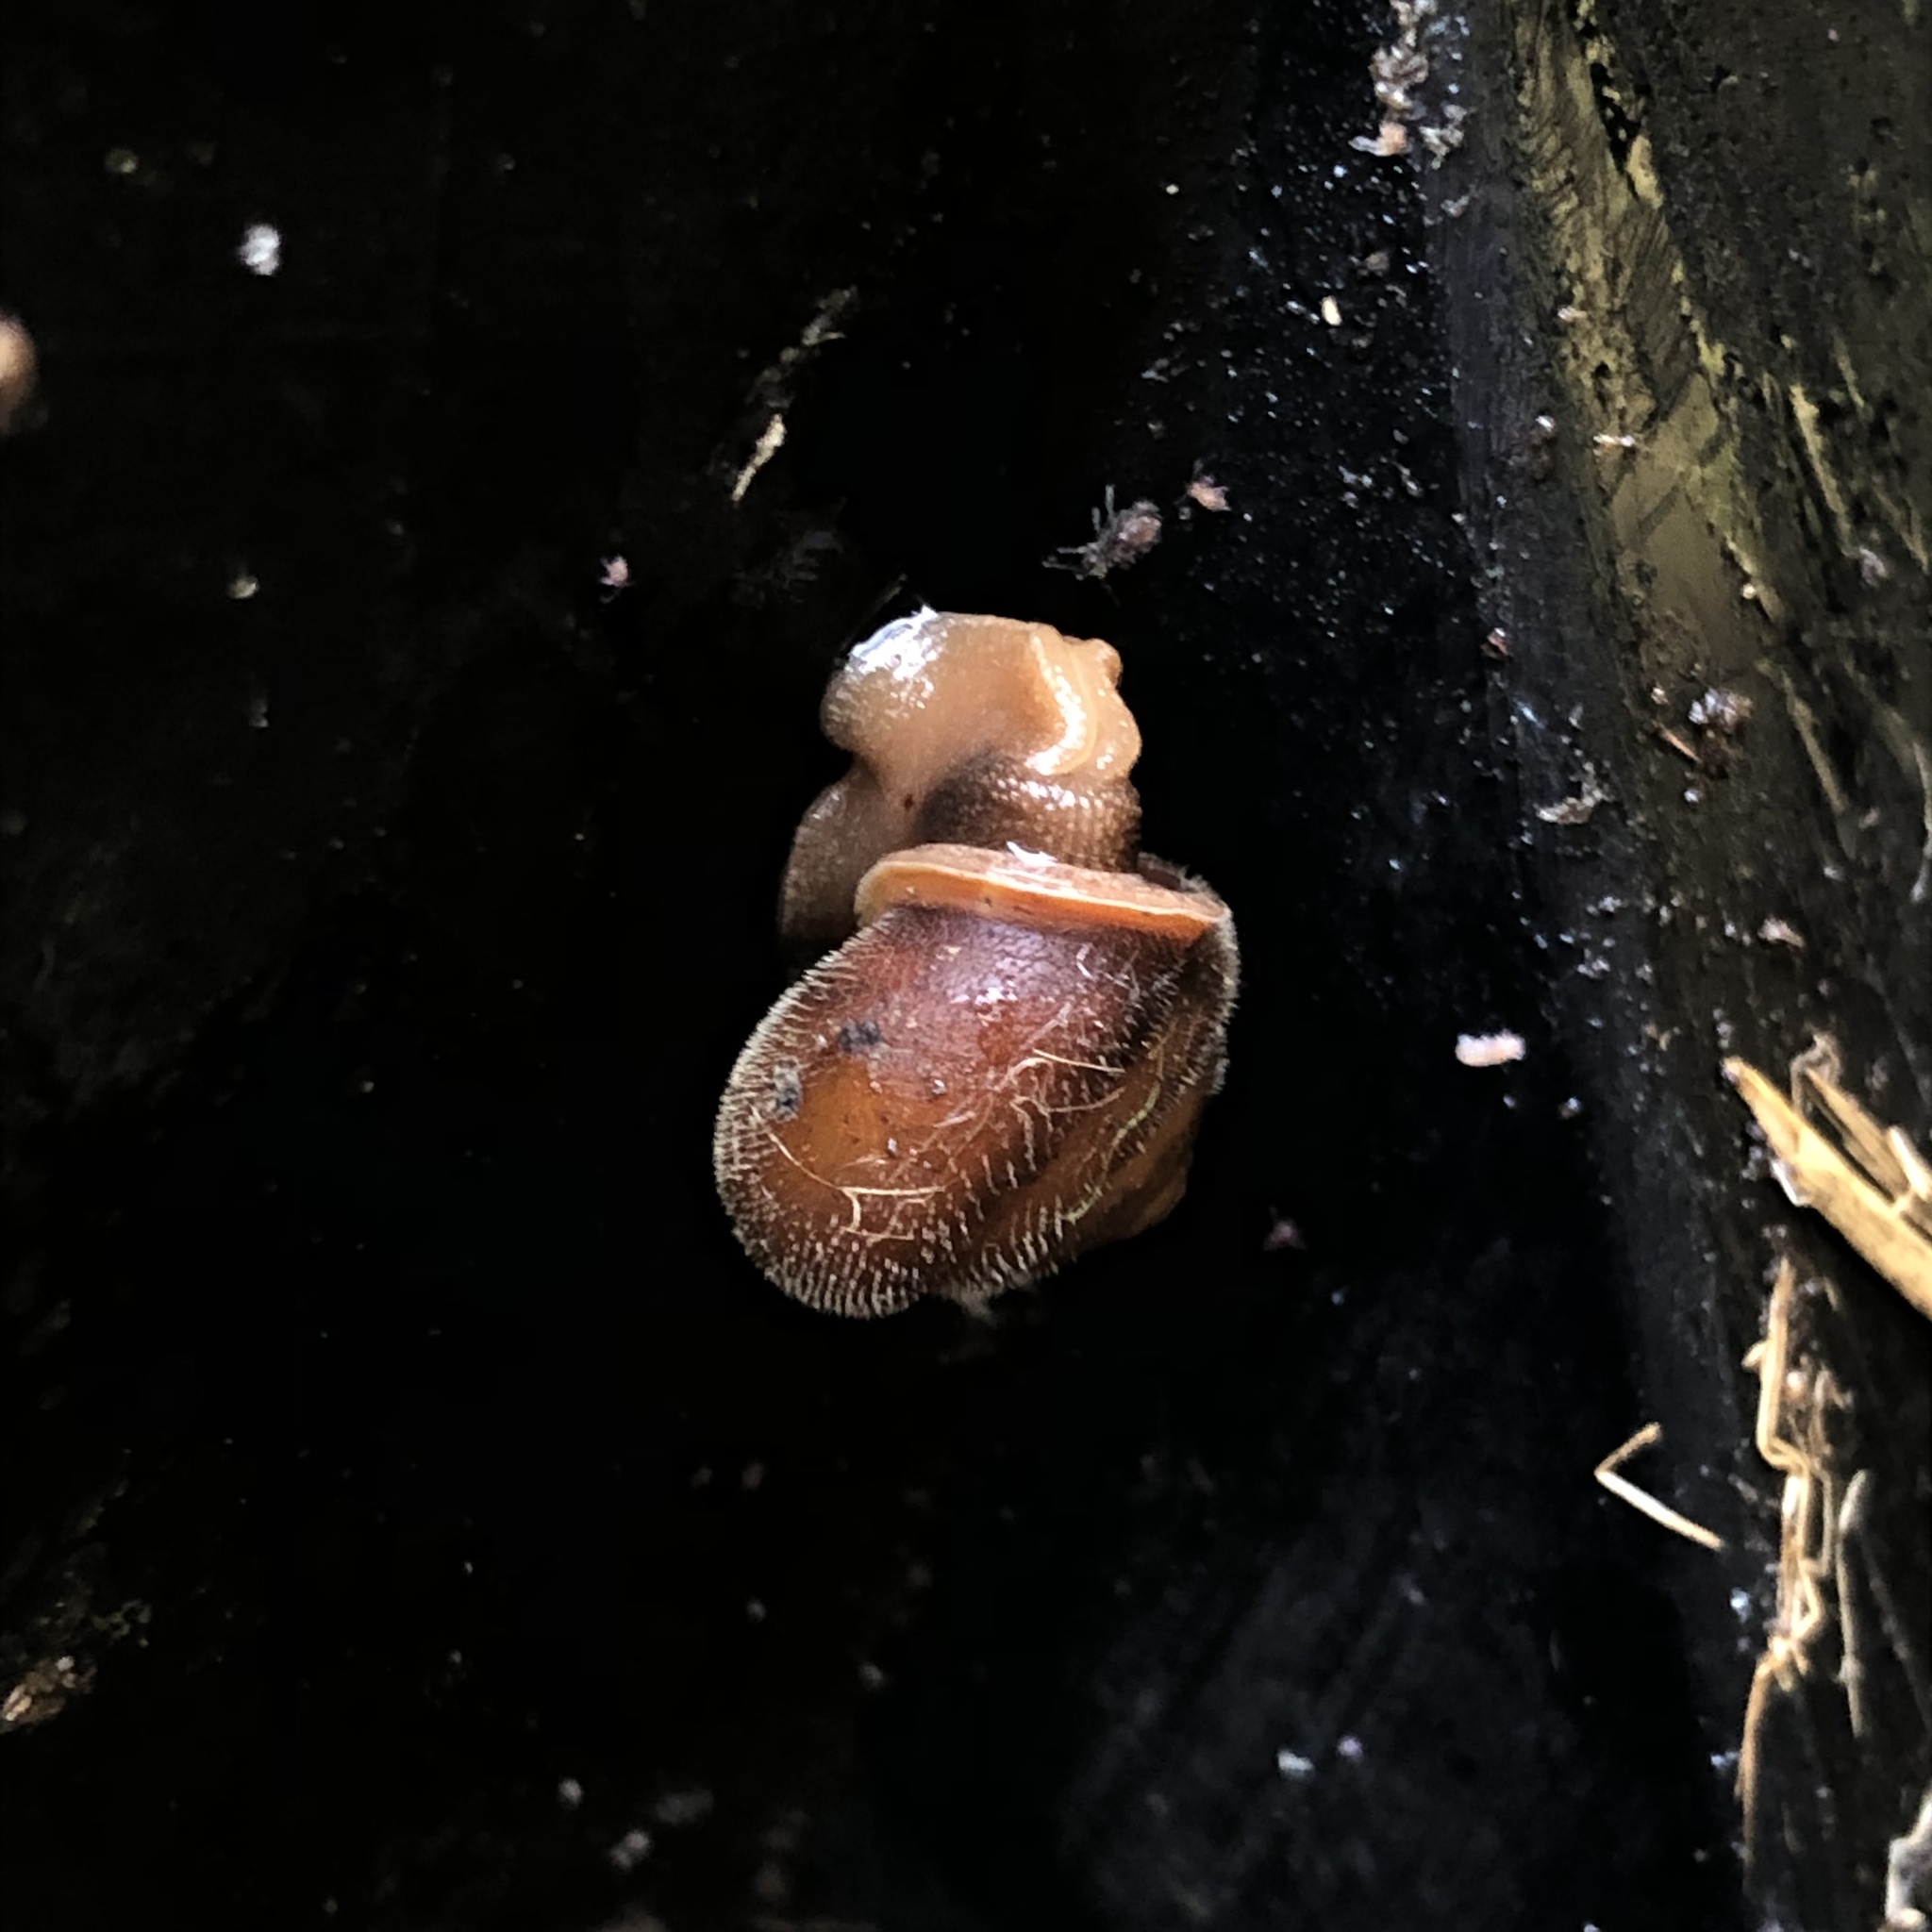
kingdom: Animalia
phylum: Mollusca
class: Gastropoda
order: Stylommatophora
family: Polygyridae
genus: Vespericola
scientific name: Vespericola columbianus
